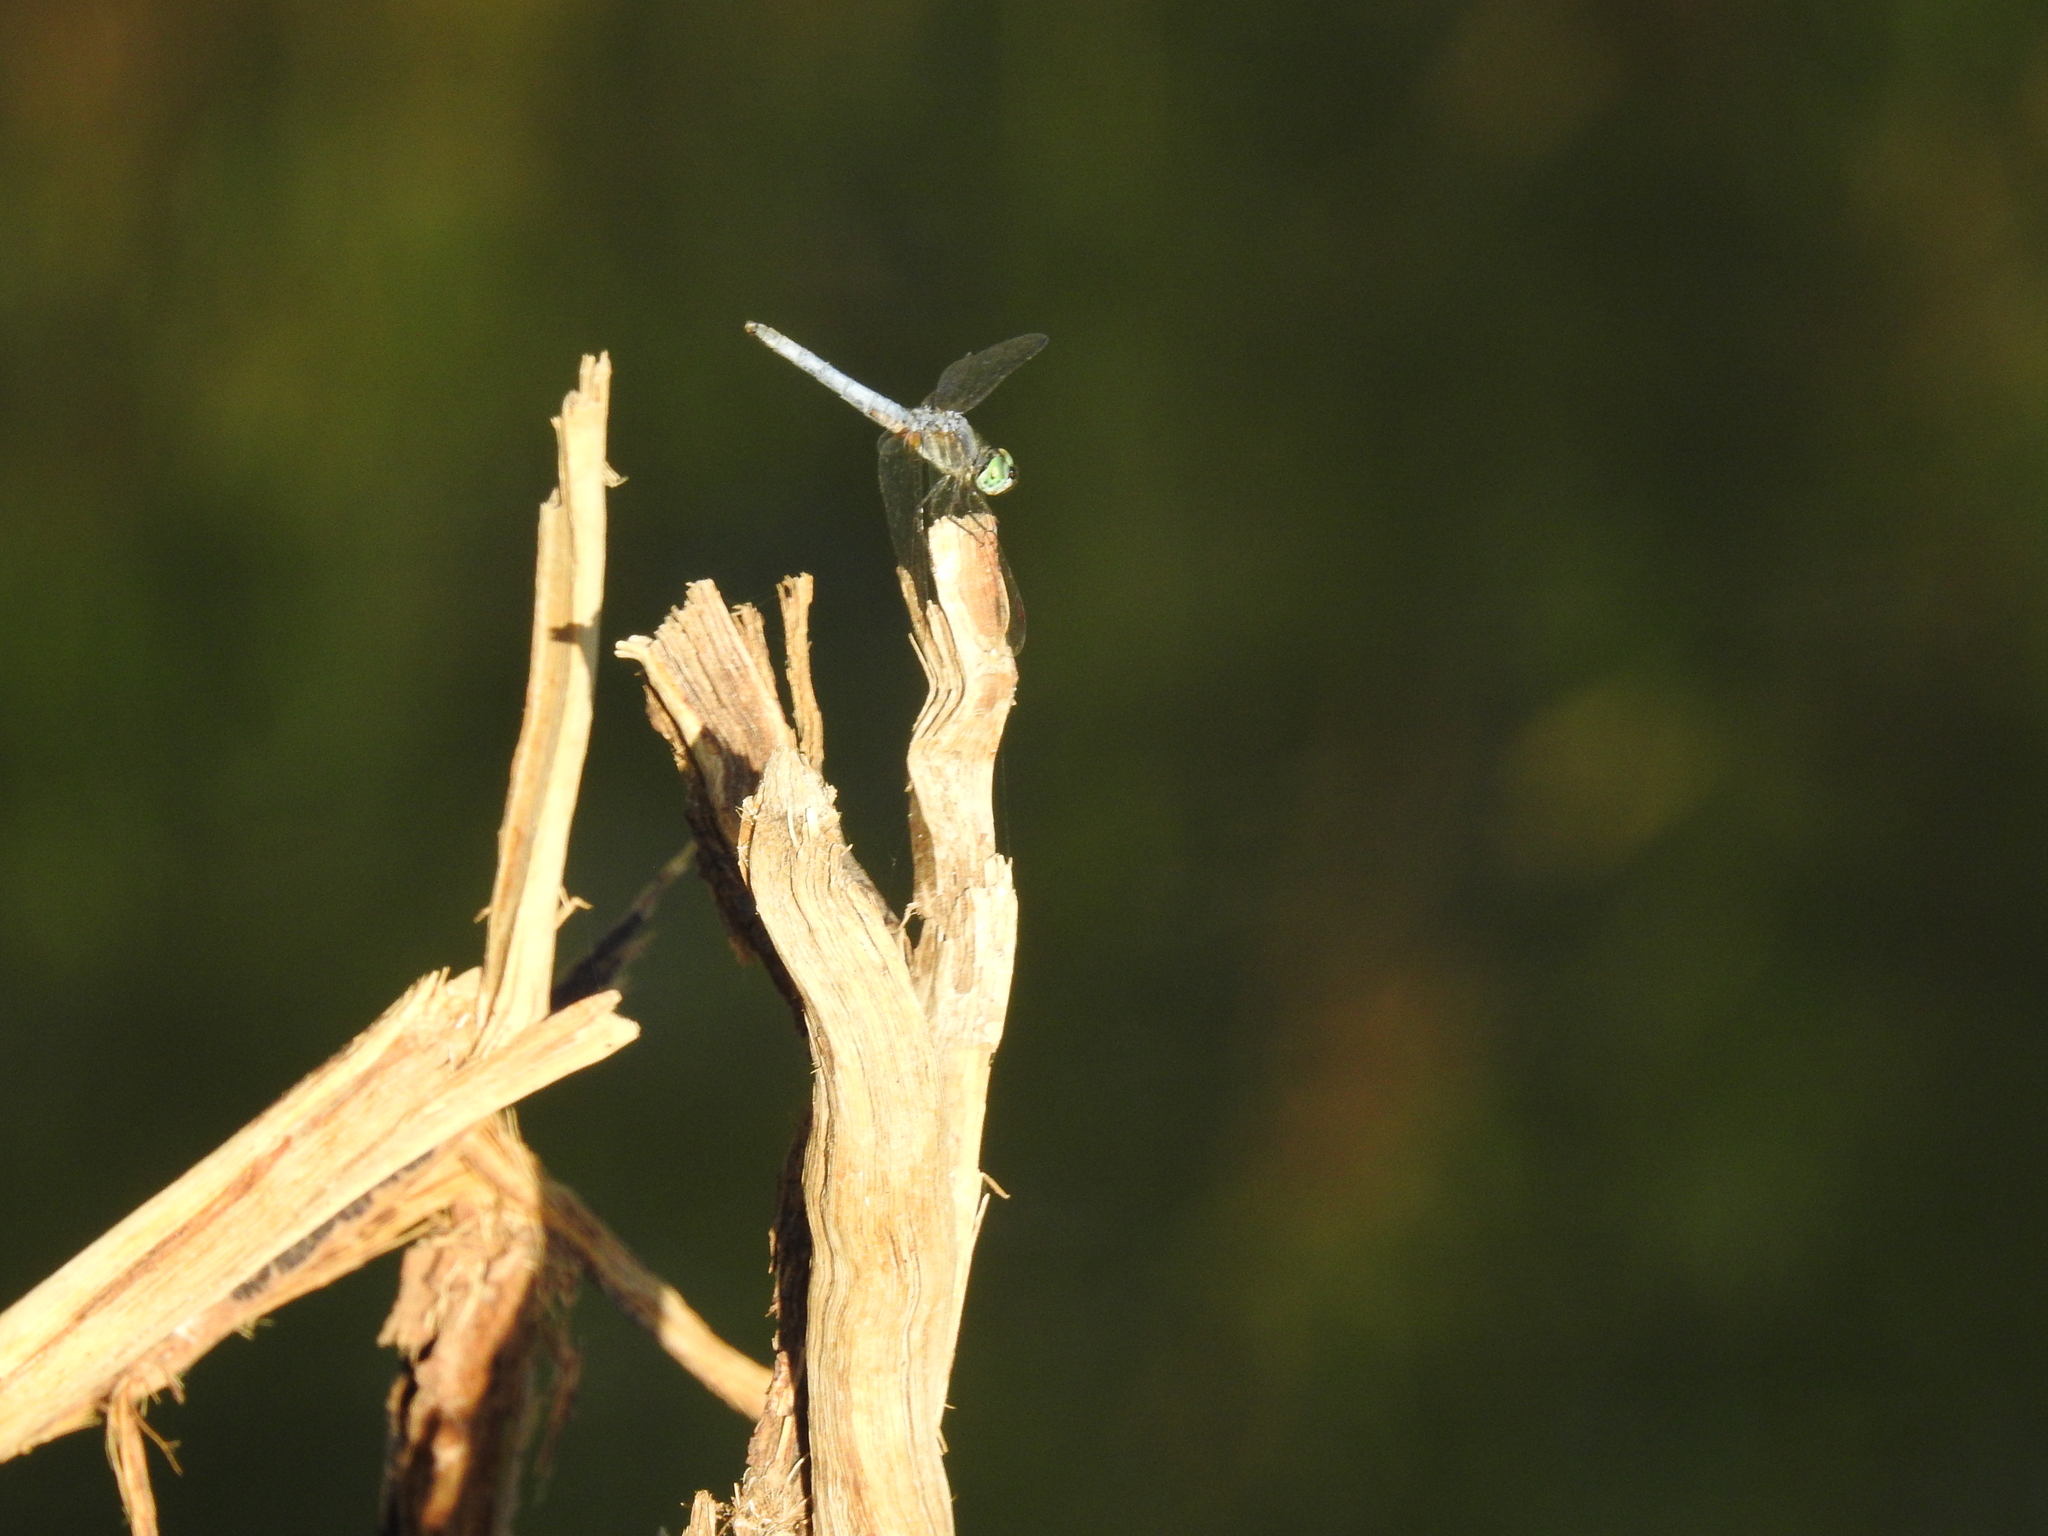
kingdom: Animalia
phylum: Arthropoda
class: Insecta
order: Odonata
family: Libellulidae
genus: Pachydiplax
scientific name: Pachydiplax longipennis
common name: Blue dasher
